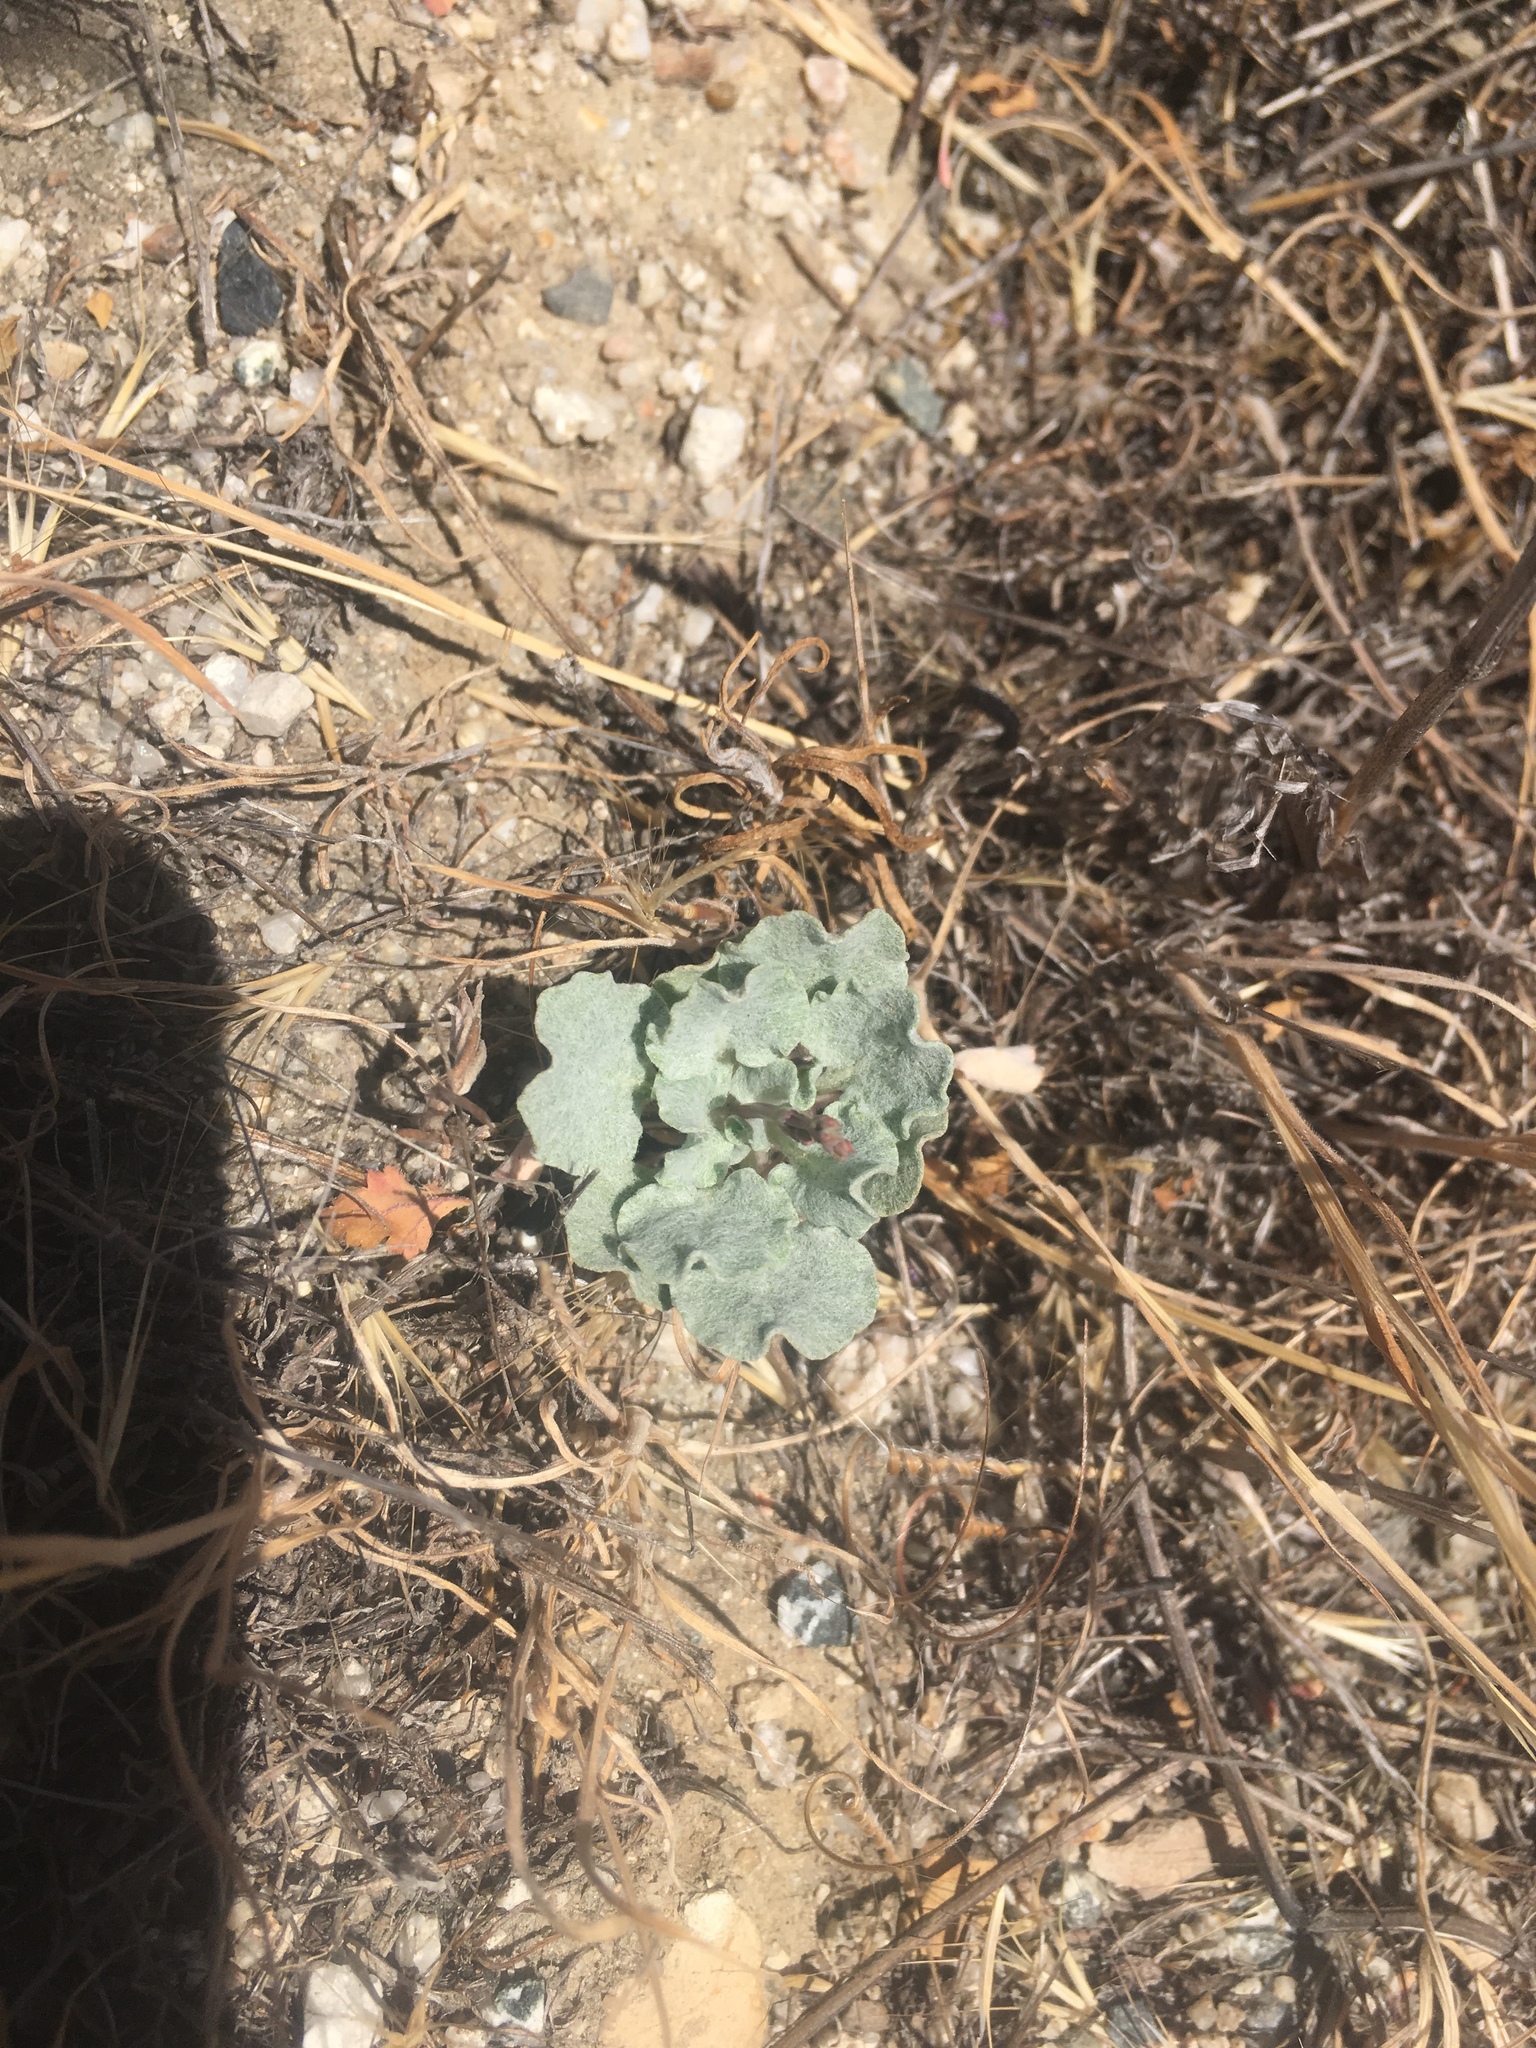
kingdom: Plantae
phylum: Tracheophyta
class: Magnoliopsida
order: Caryophyllales
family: Polygonaceae
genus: Eriogonum
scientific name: Eriogonum elegans
